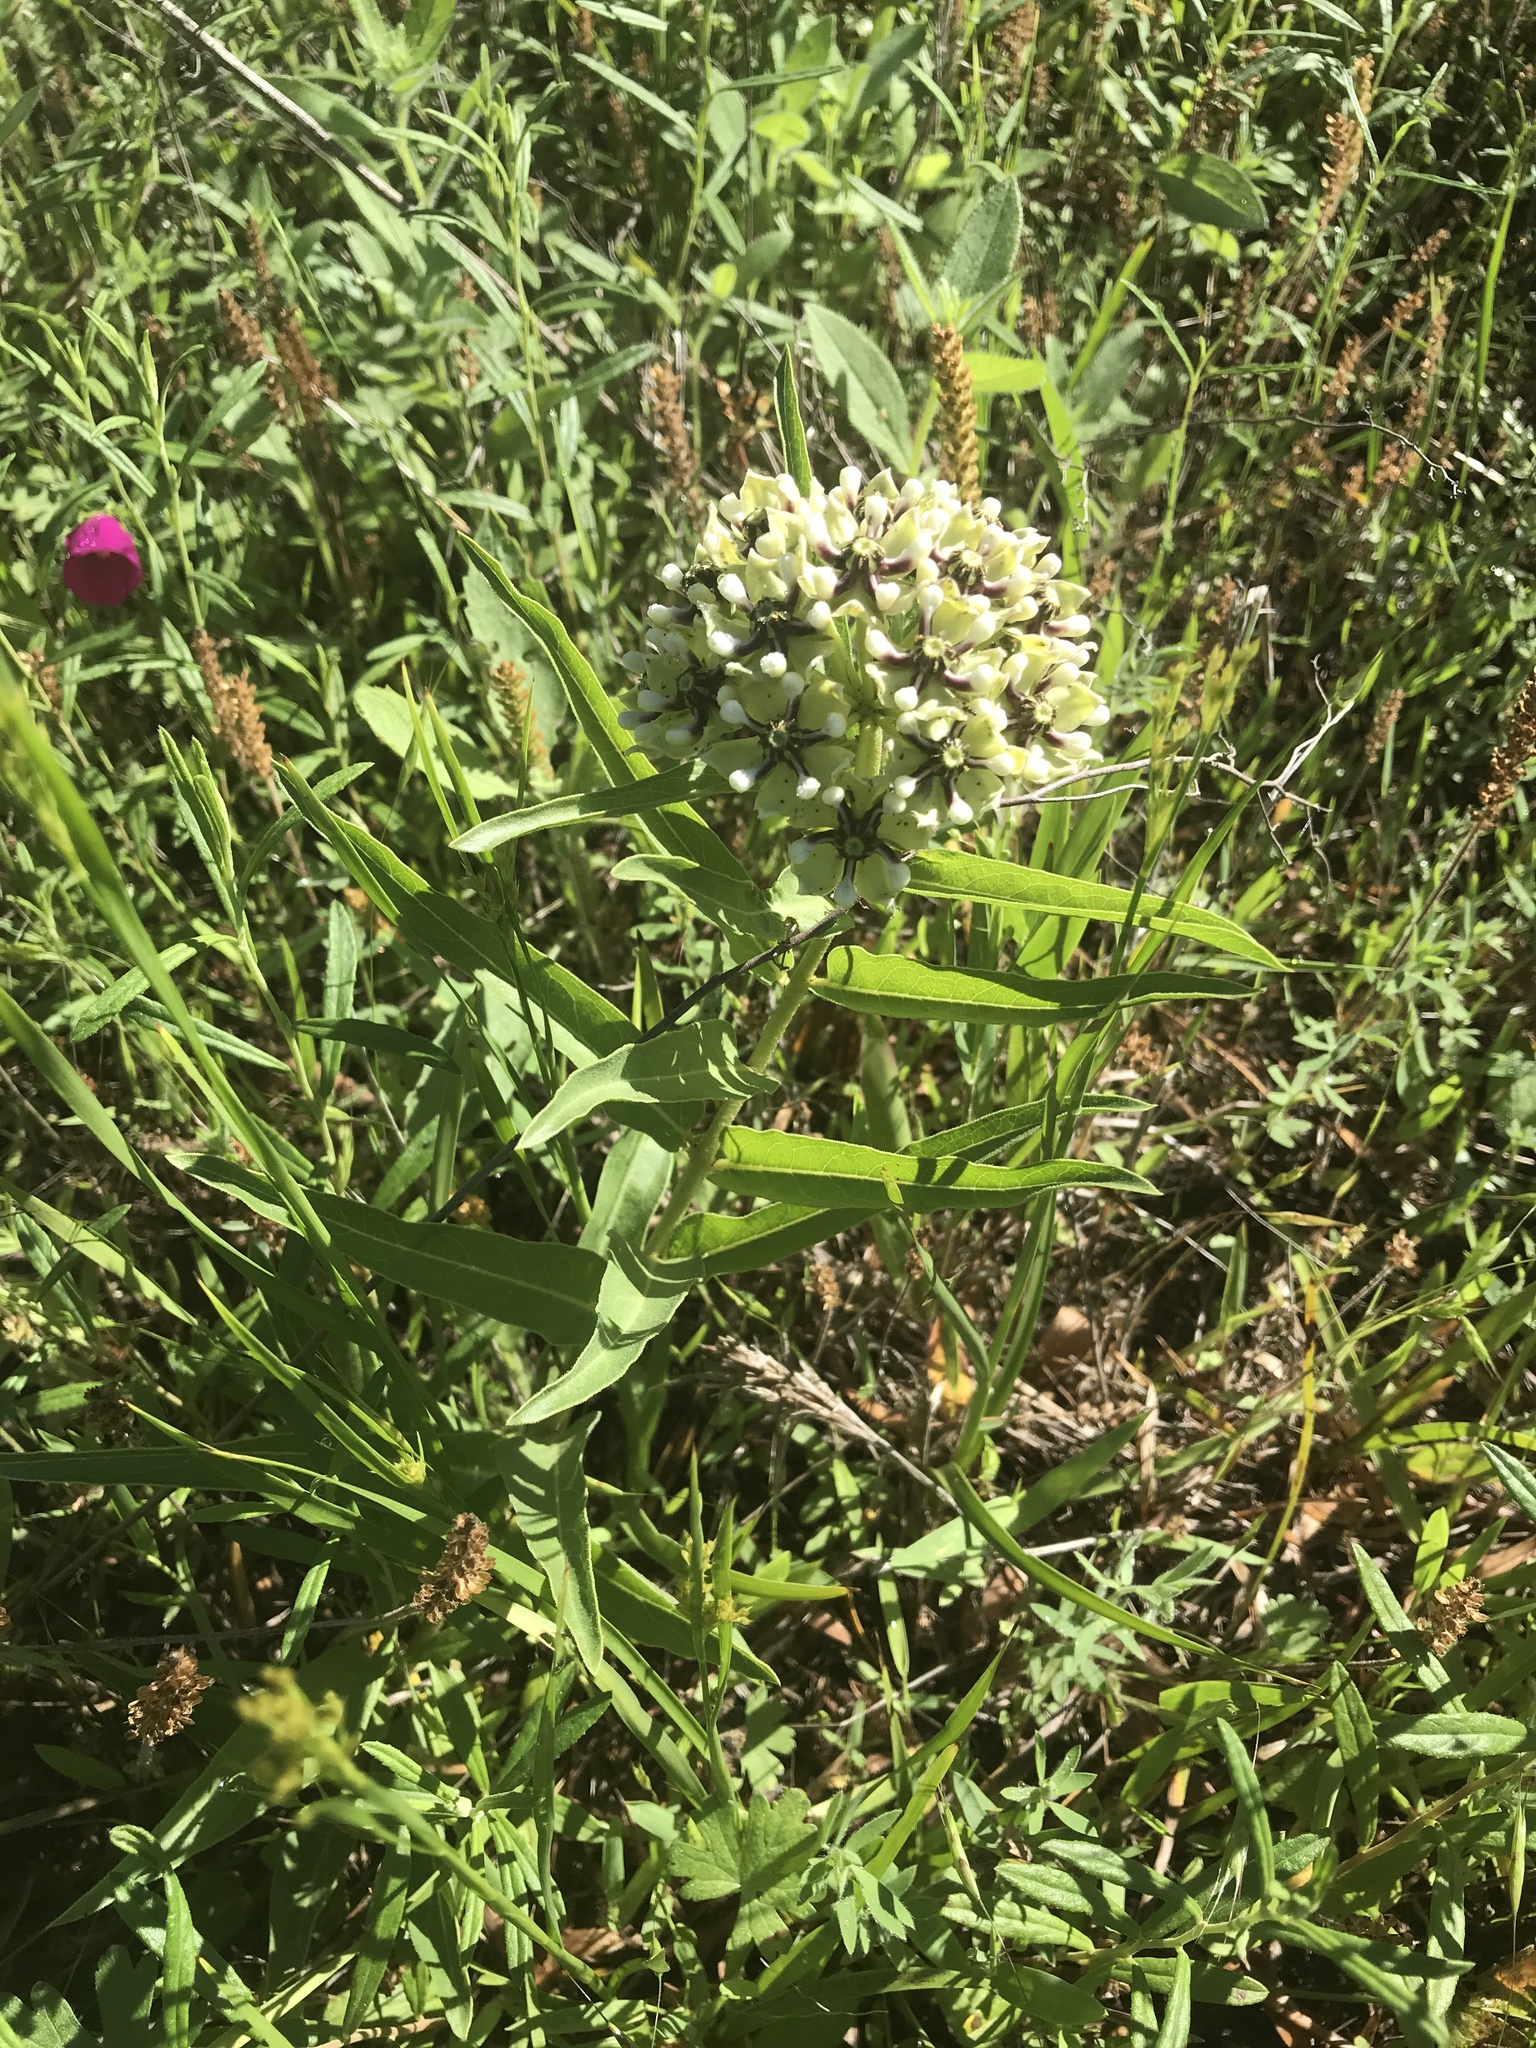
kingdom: Plantae
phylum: Tracheophyta
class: Magnoliopsida
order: Gentianales
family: Apocynaceae
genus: Asclepias
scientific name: Asclepias asperula
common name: Antelope horns
